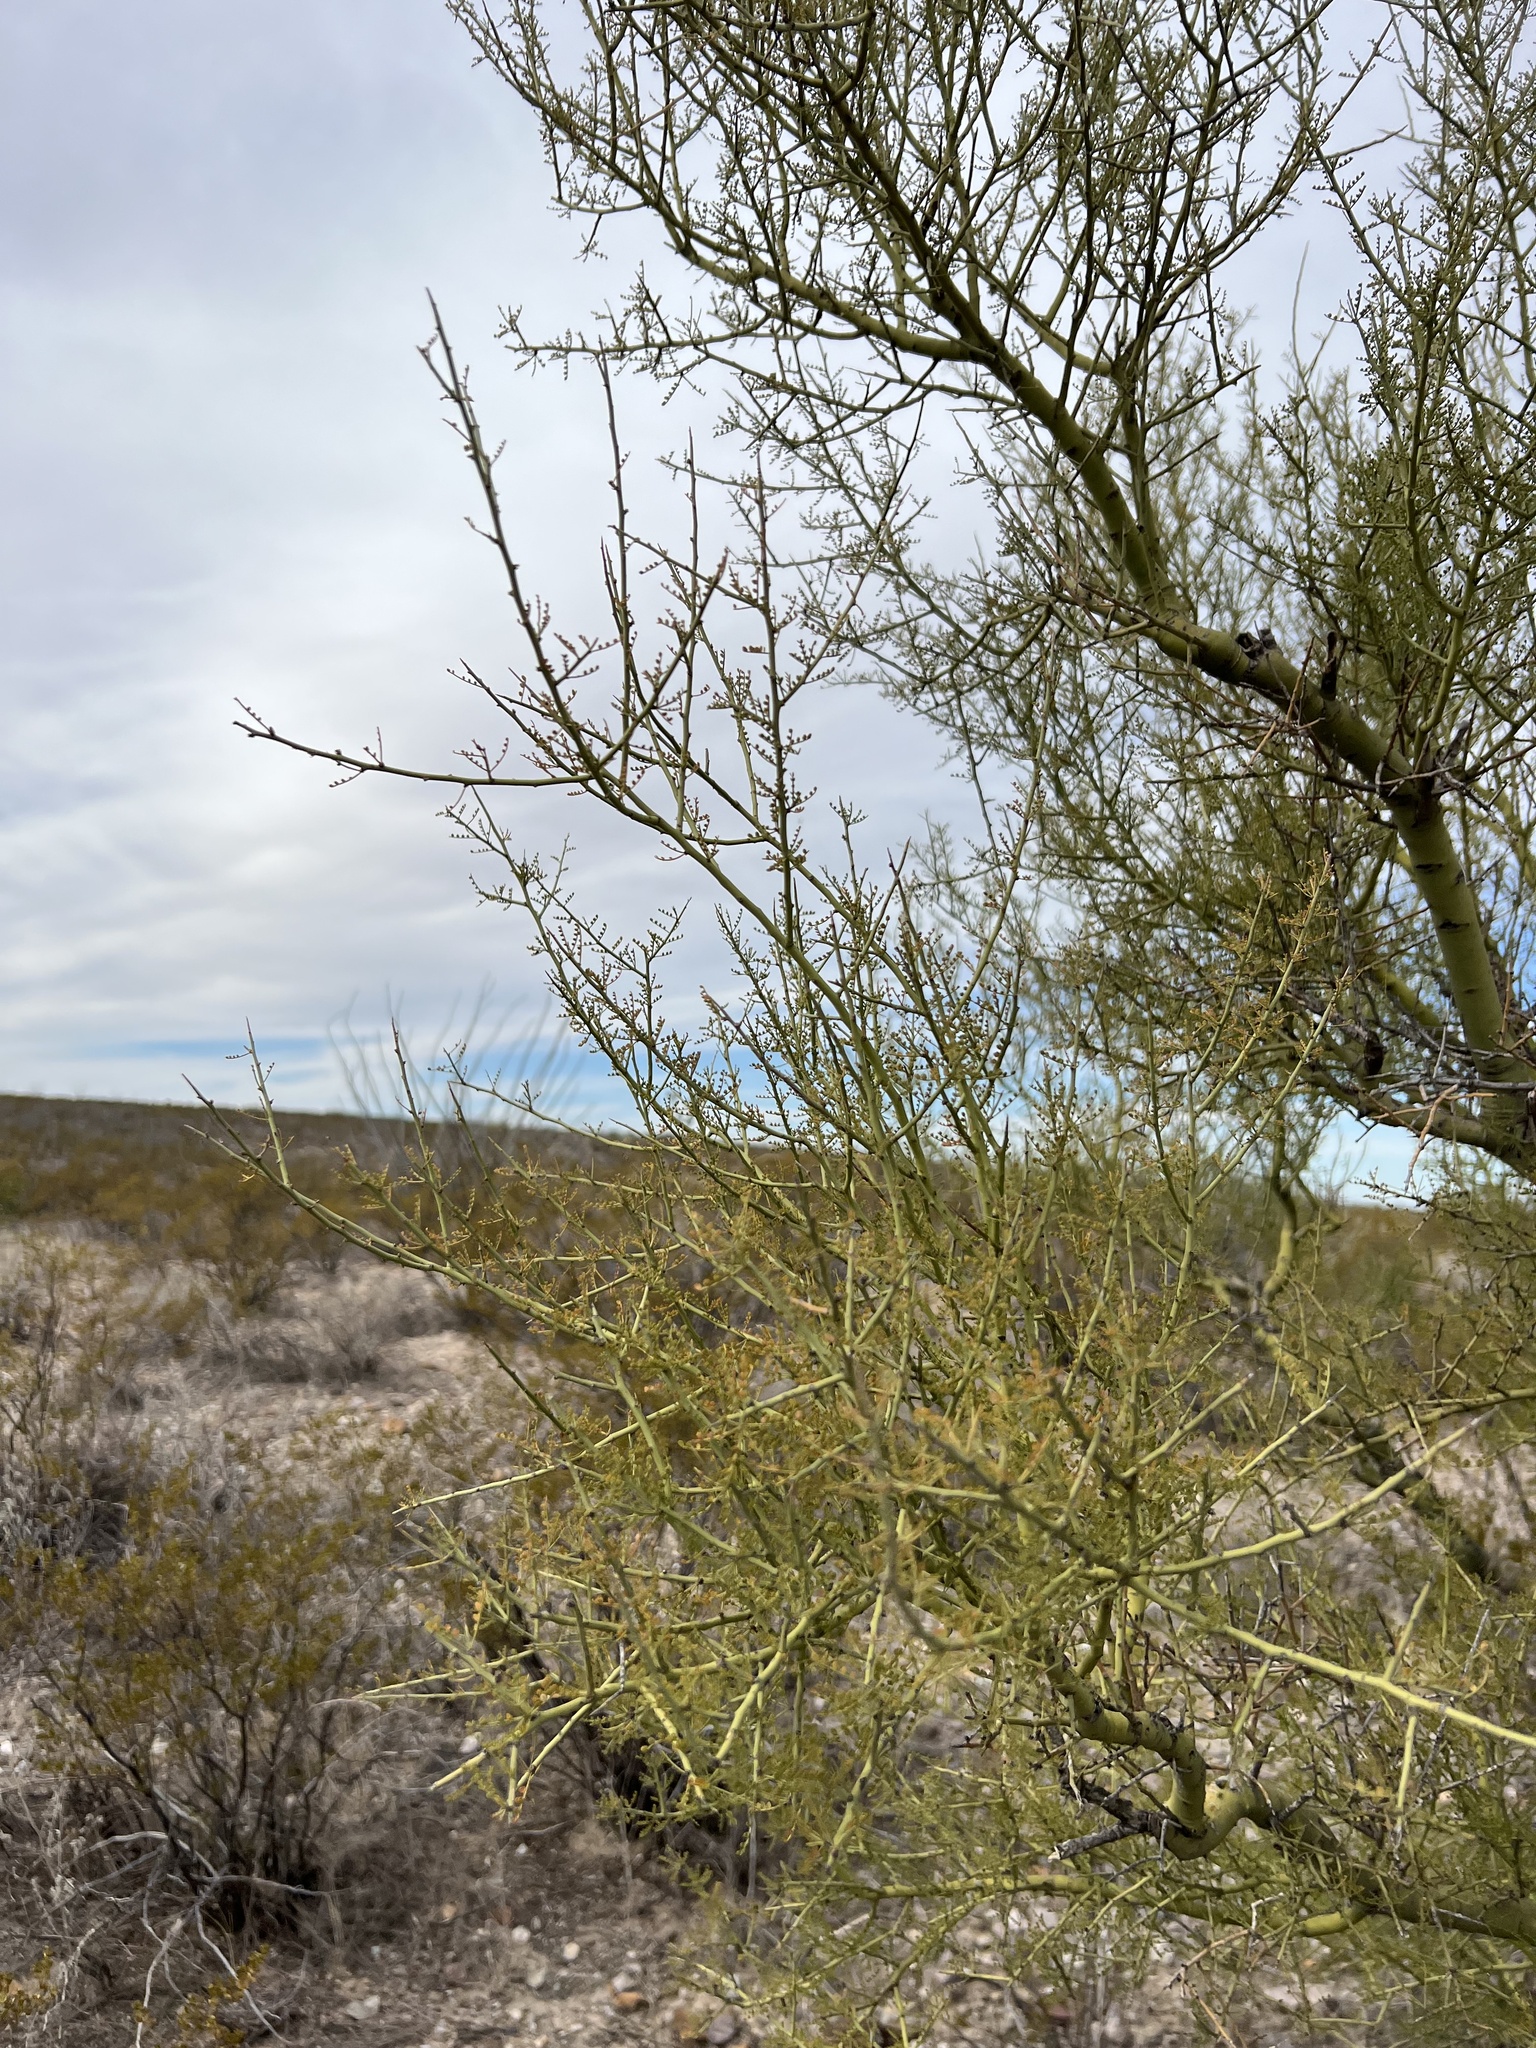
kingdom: Plantae
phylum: Tracheophyta
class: Magnoliopsida
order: Fabales
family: Fabaceae
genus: Parkinsonia
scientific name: Parkinsonia microphylla
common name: Yellow paloverde
